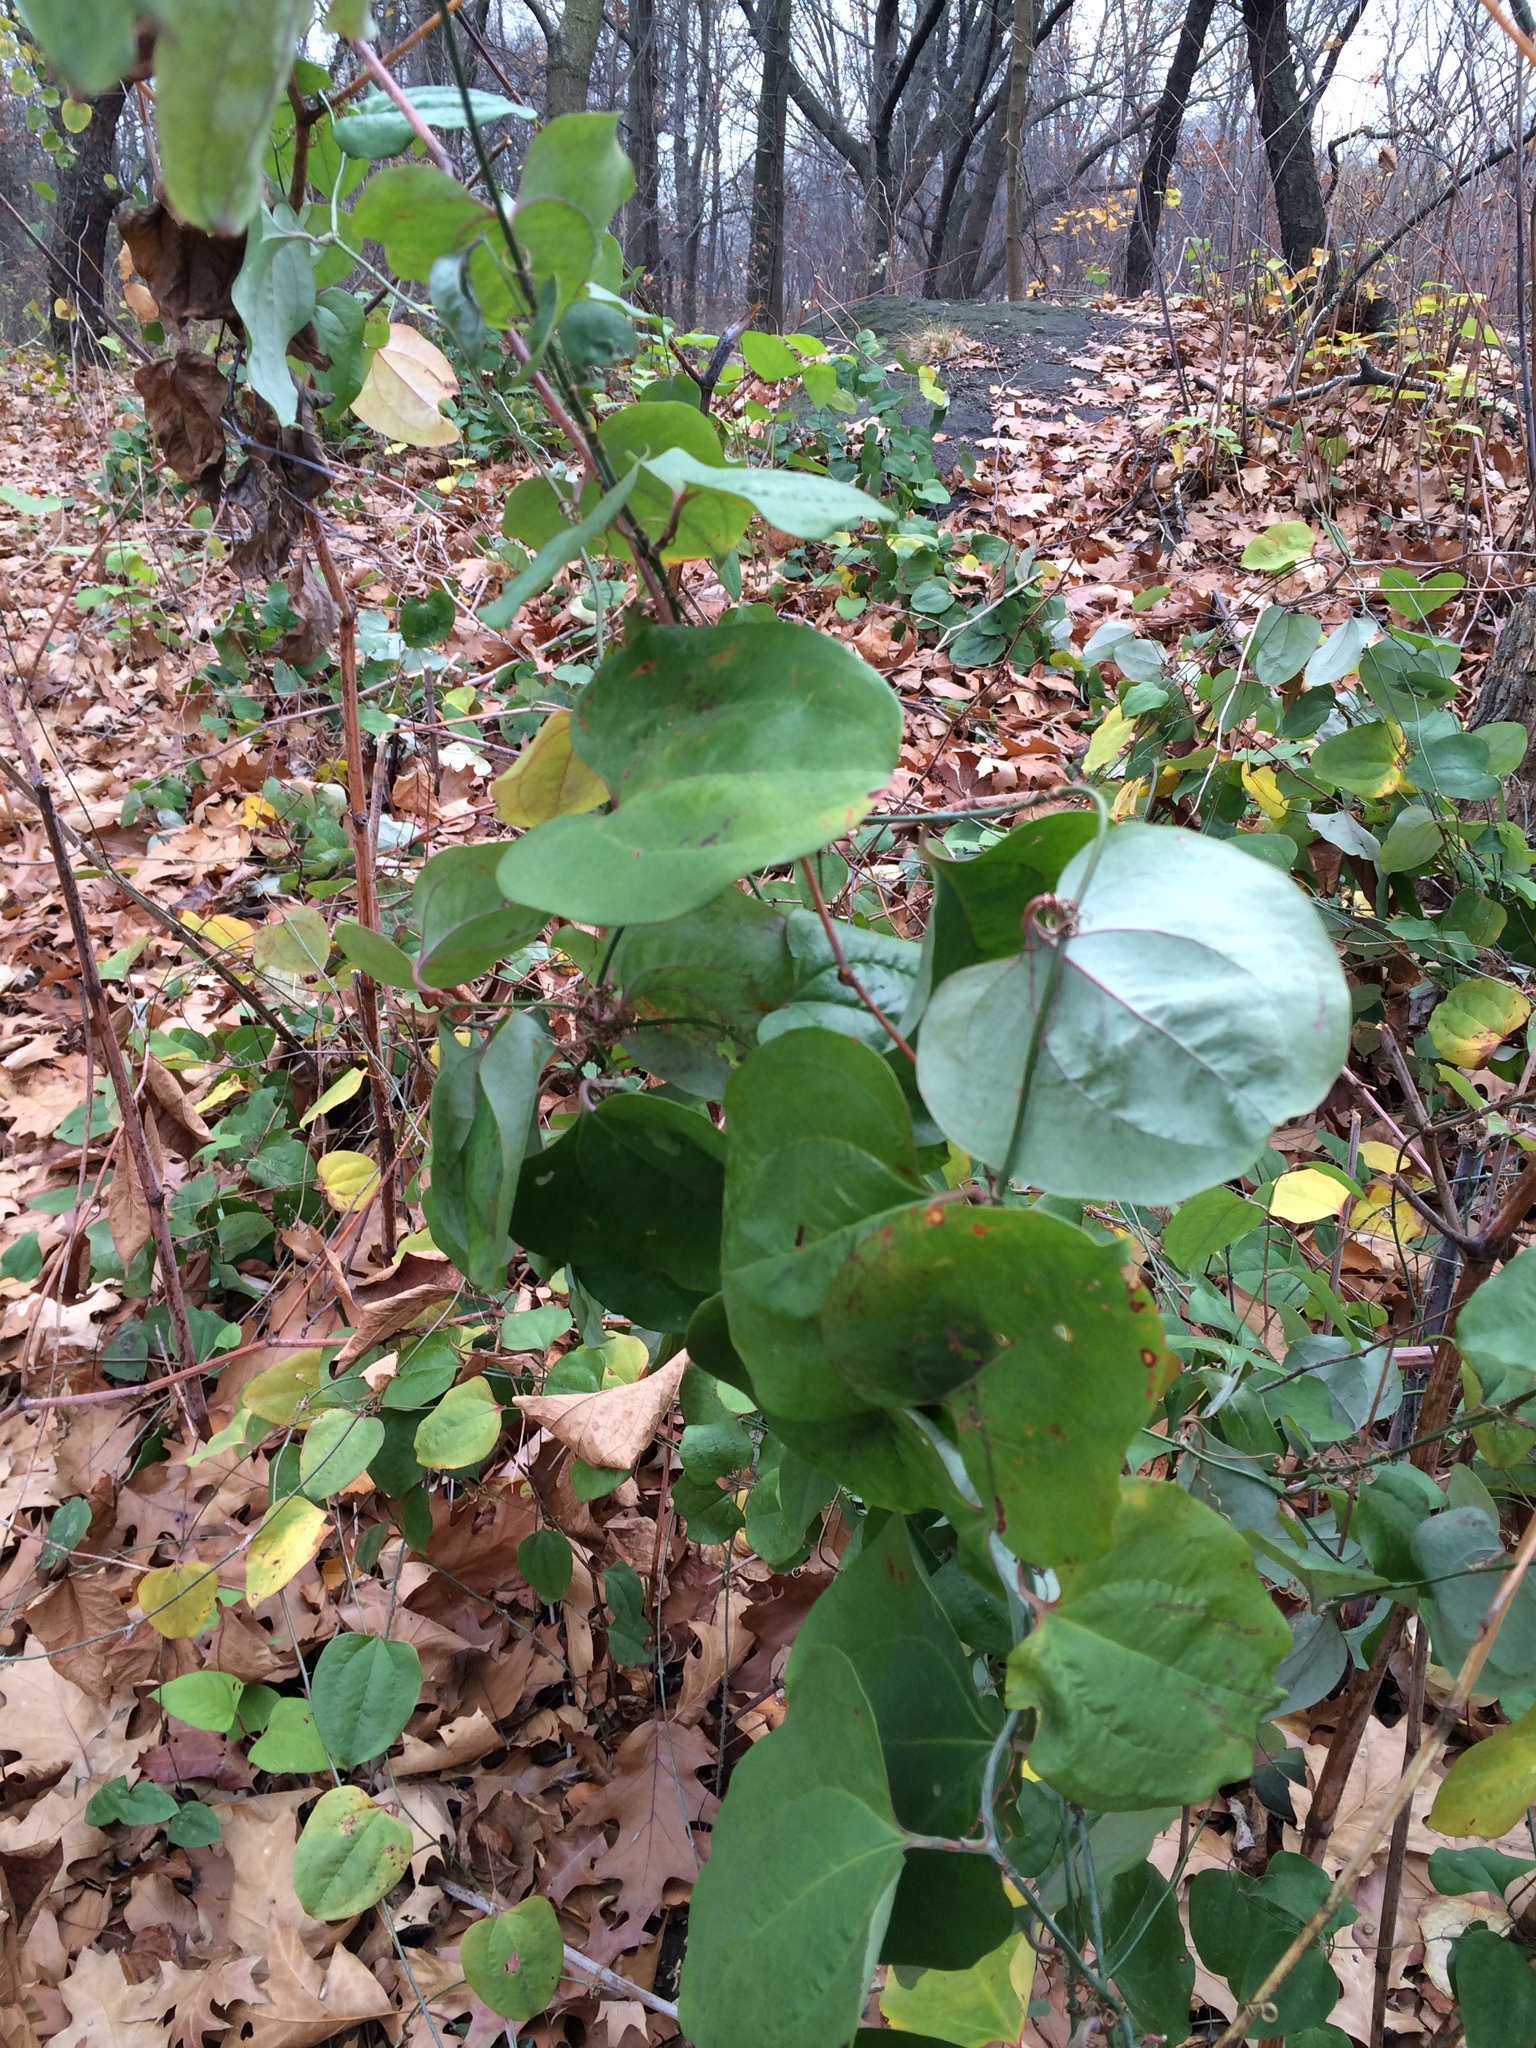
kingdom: Plantae
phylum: Tracheophyta
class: Liliopsida
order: Liliales
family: Smilacaceae
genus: Smilax
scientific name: Smilax glauca
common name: Cat greenbrier
